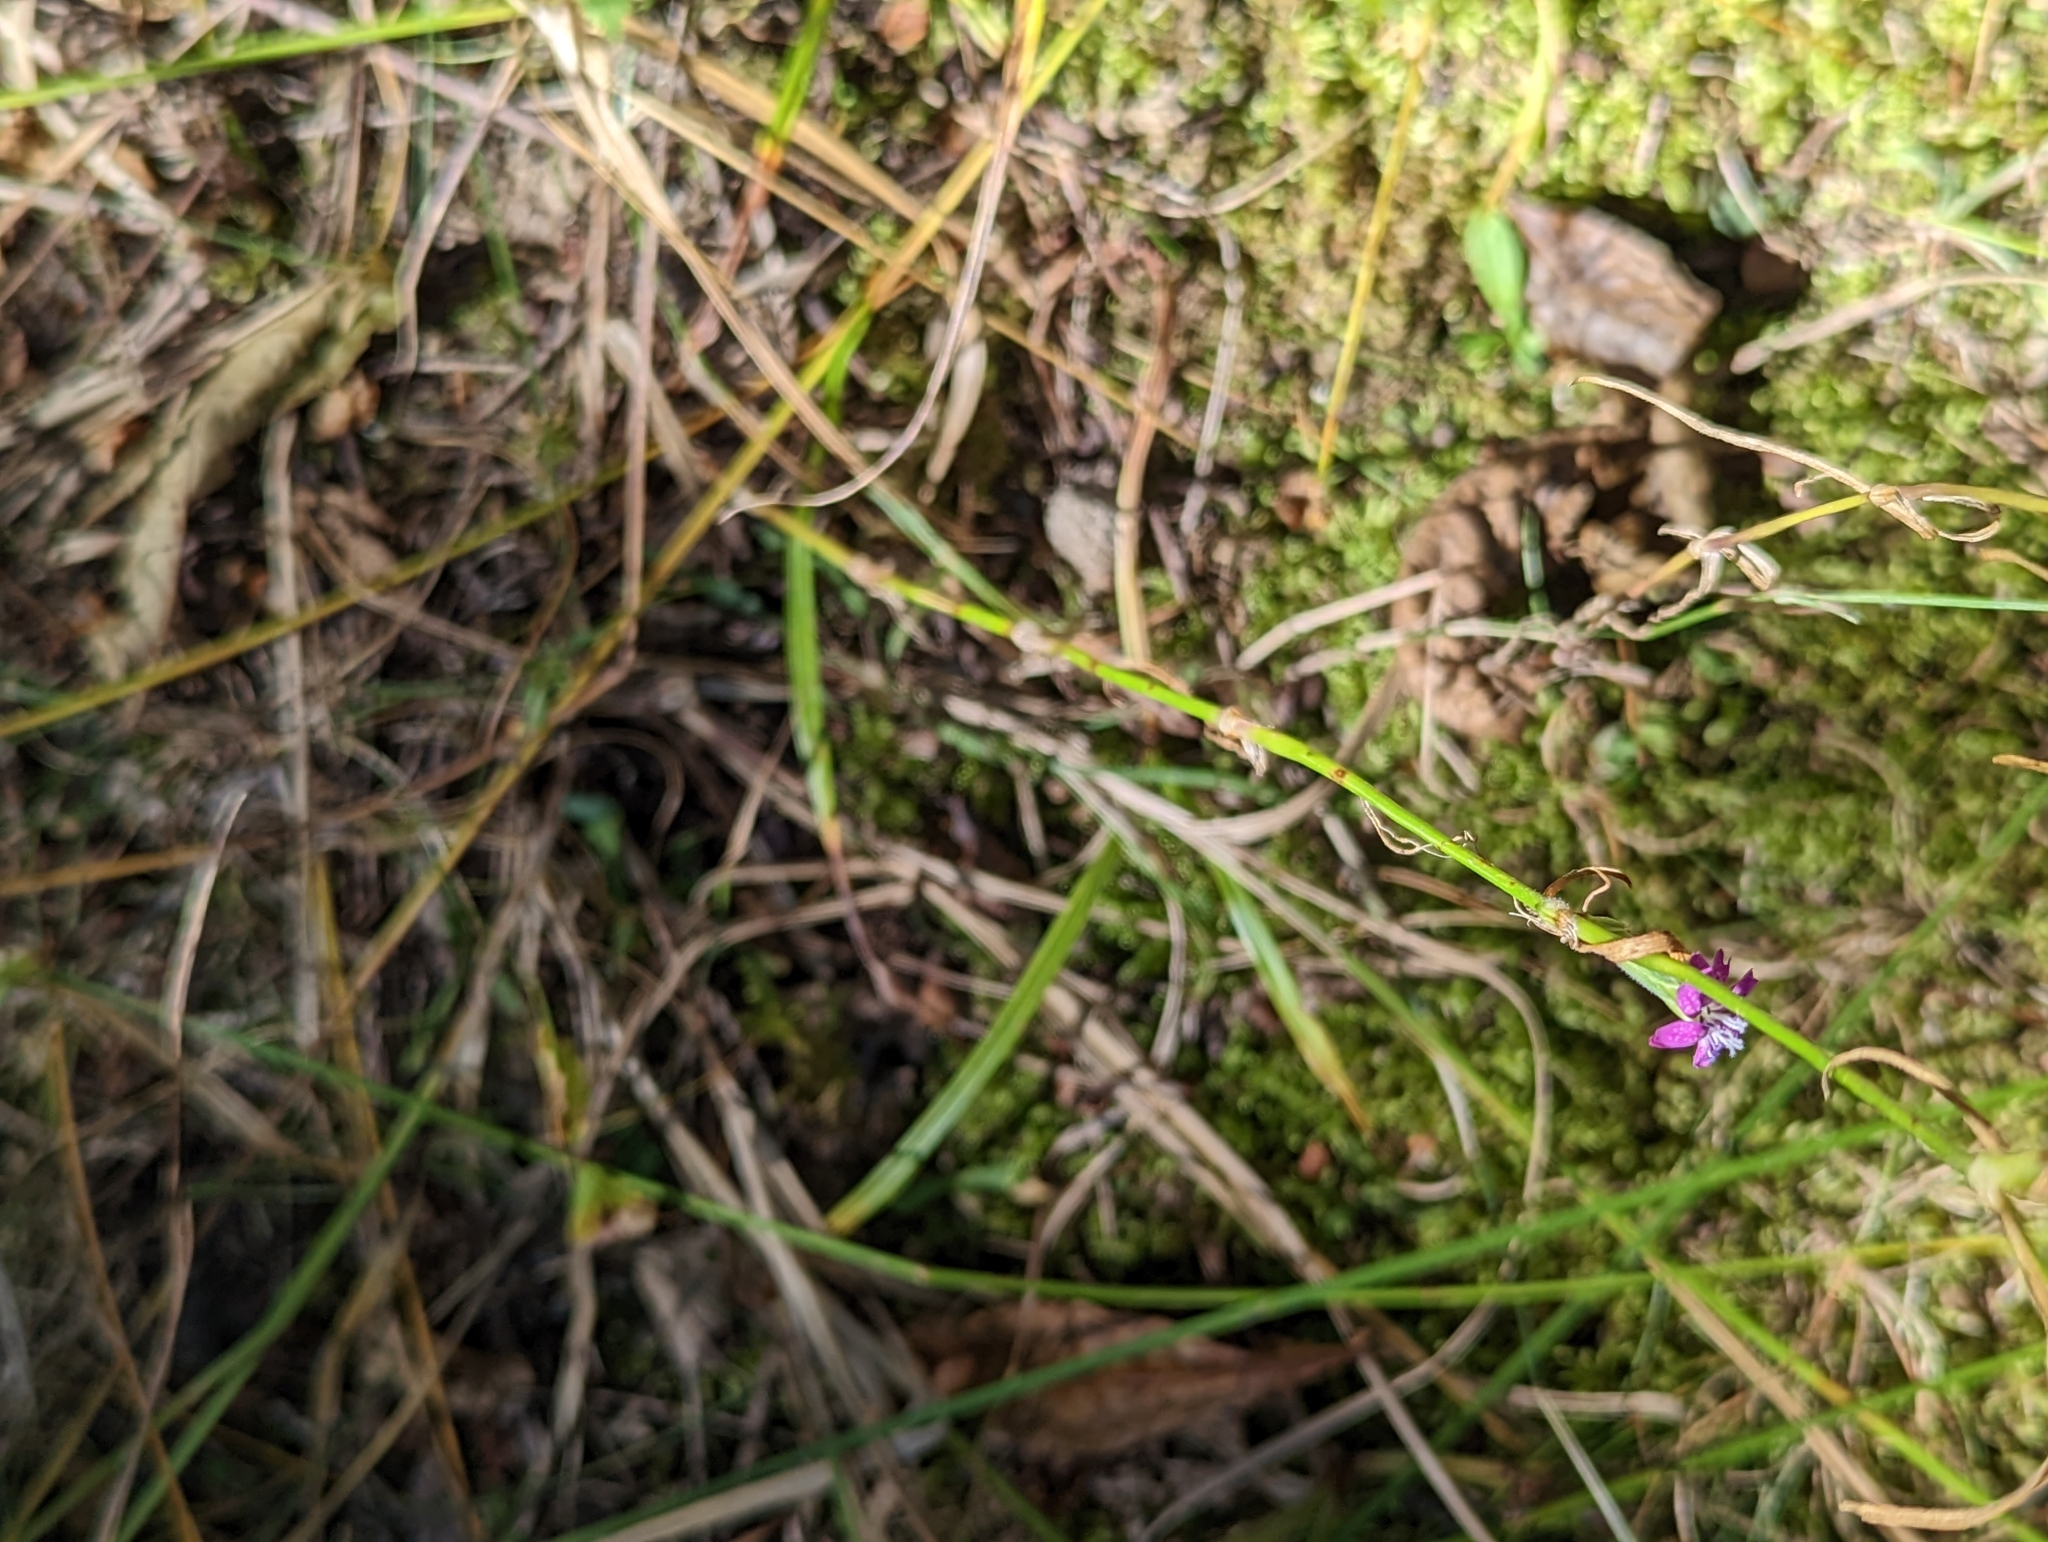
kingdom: Plantae
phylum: Tracheophyta
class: Magnoliopsida
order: Caryophyllales
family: Caryophyllaceae
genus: Dianthus
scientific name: Dianthus armeria
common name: Deptford pink
